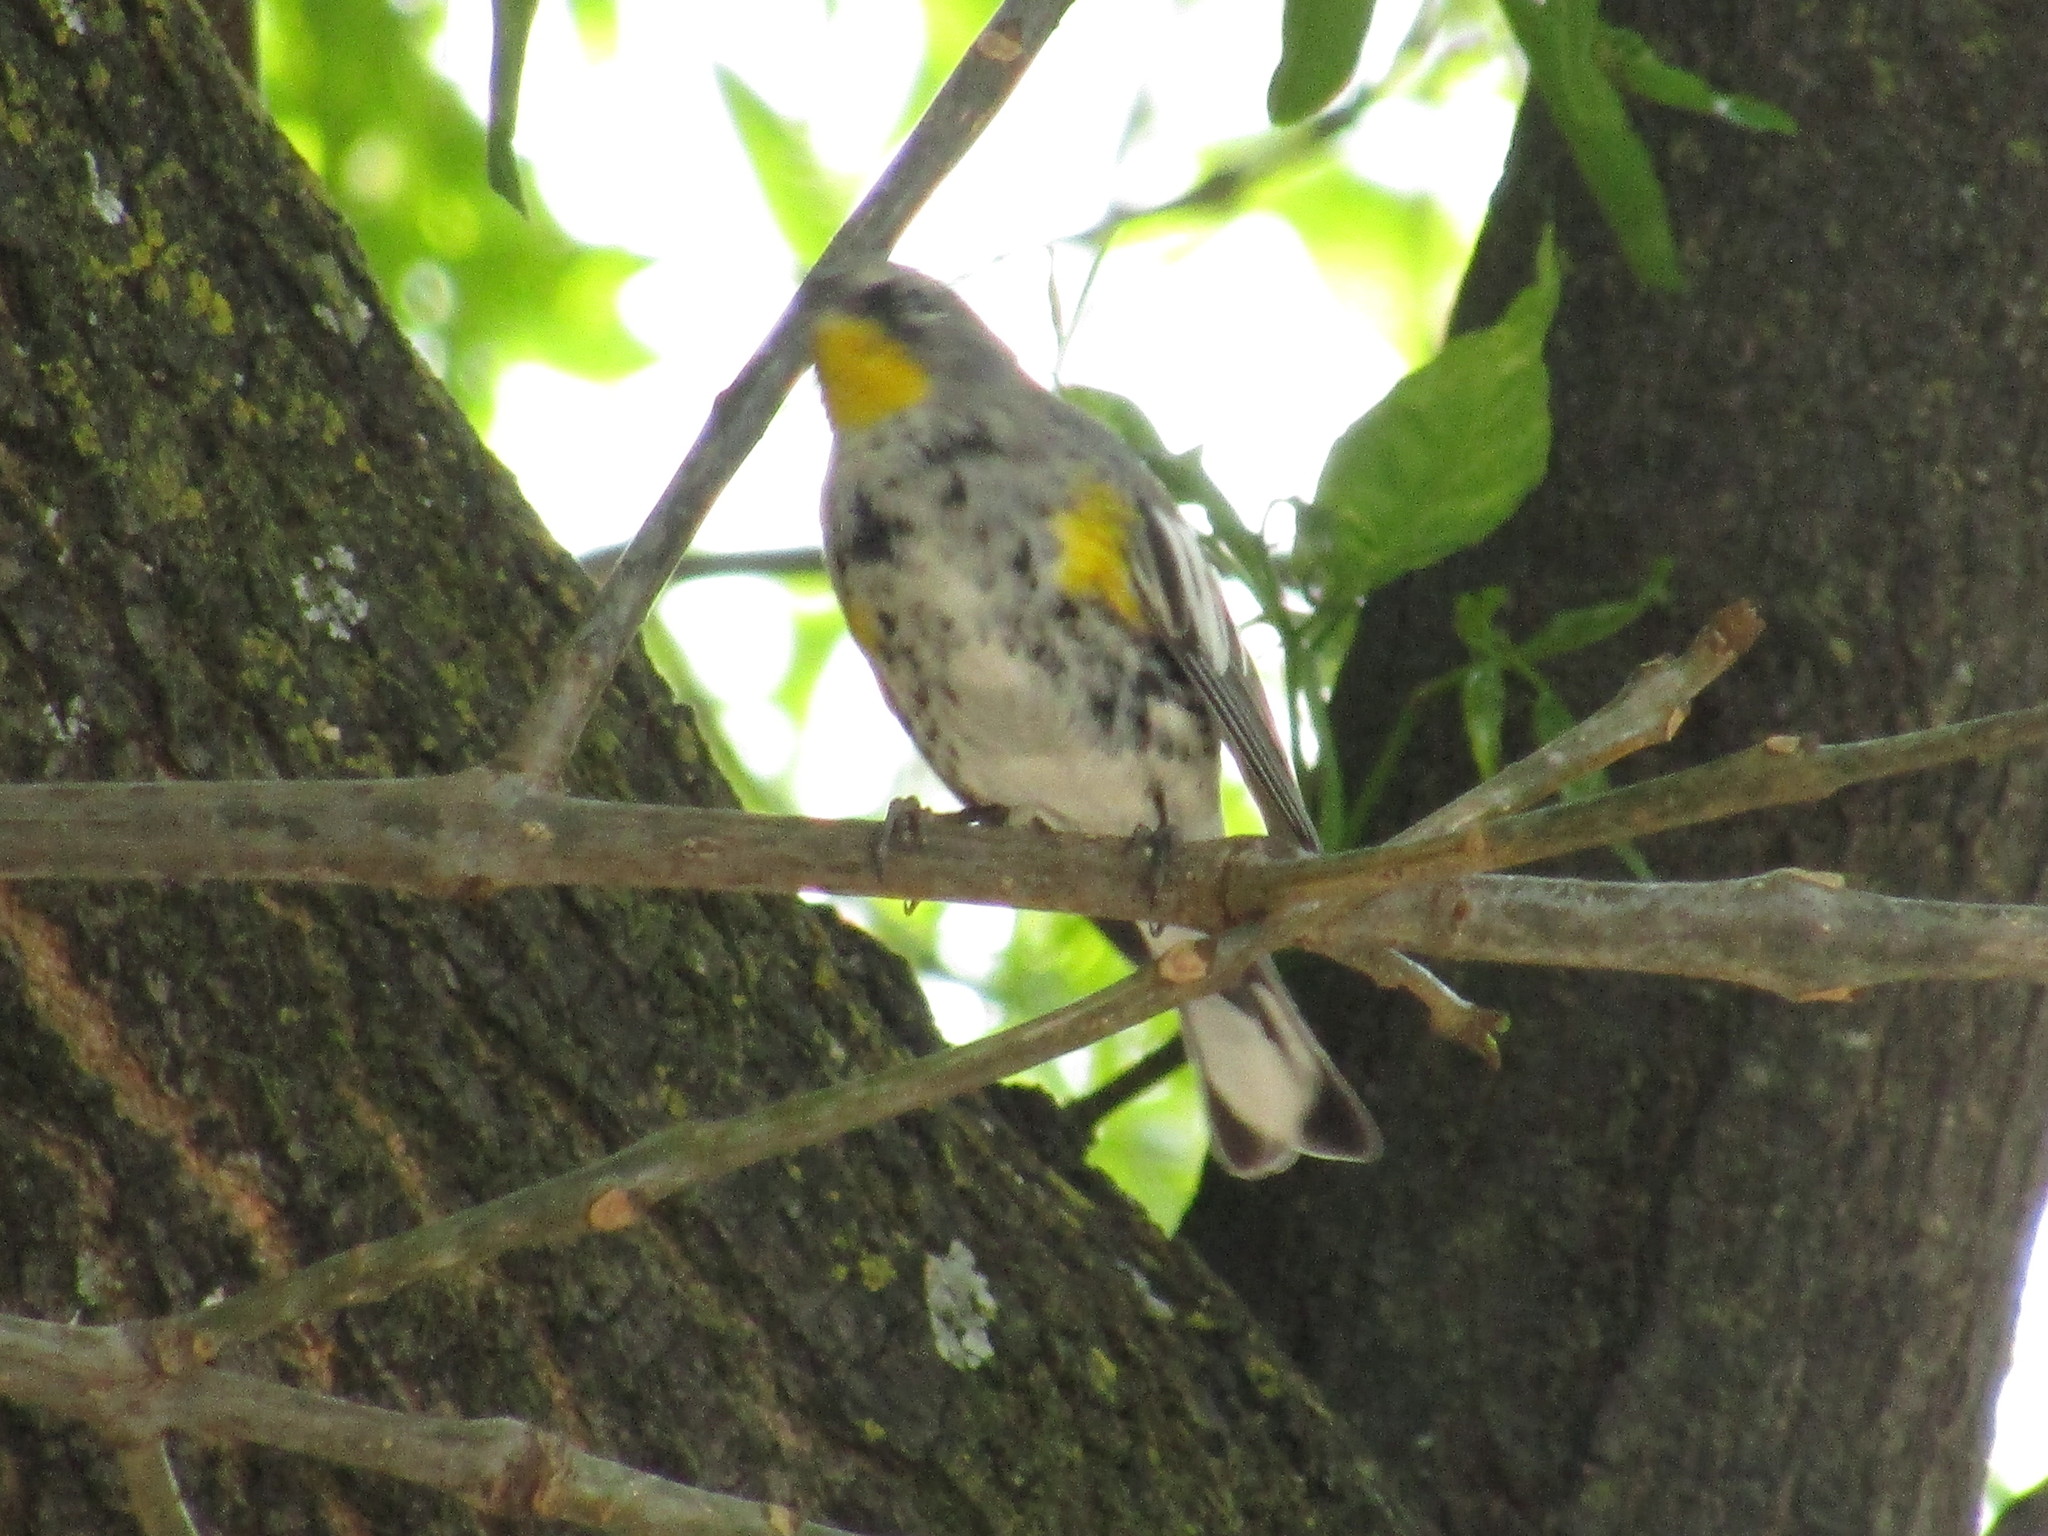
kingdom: Animalia
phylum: Chordata
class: Aves
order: Passeriformes
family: Parulidae
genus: Setophaga
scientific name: Setophaga coronata
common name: Myrtle warbler
